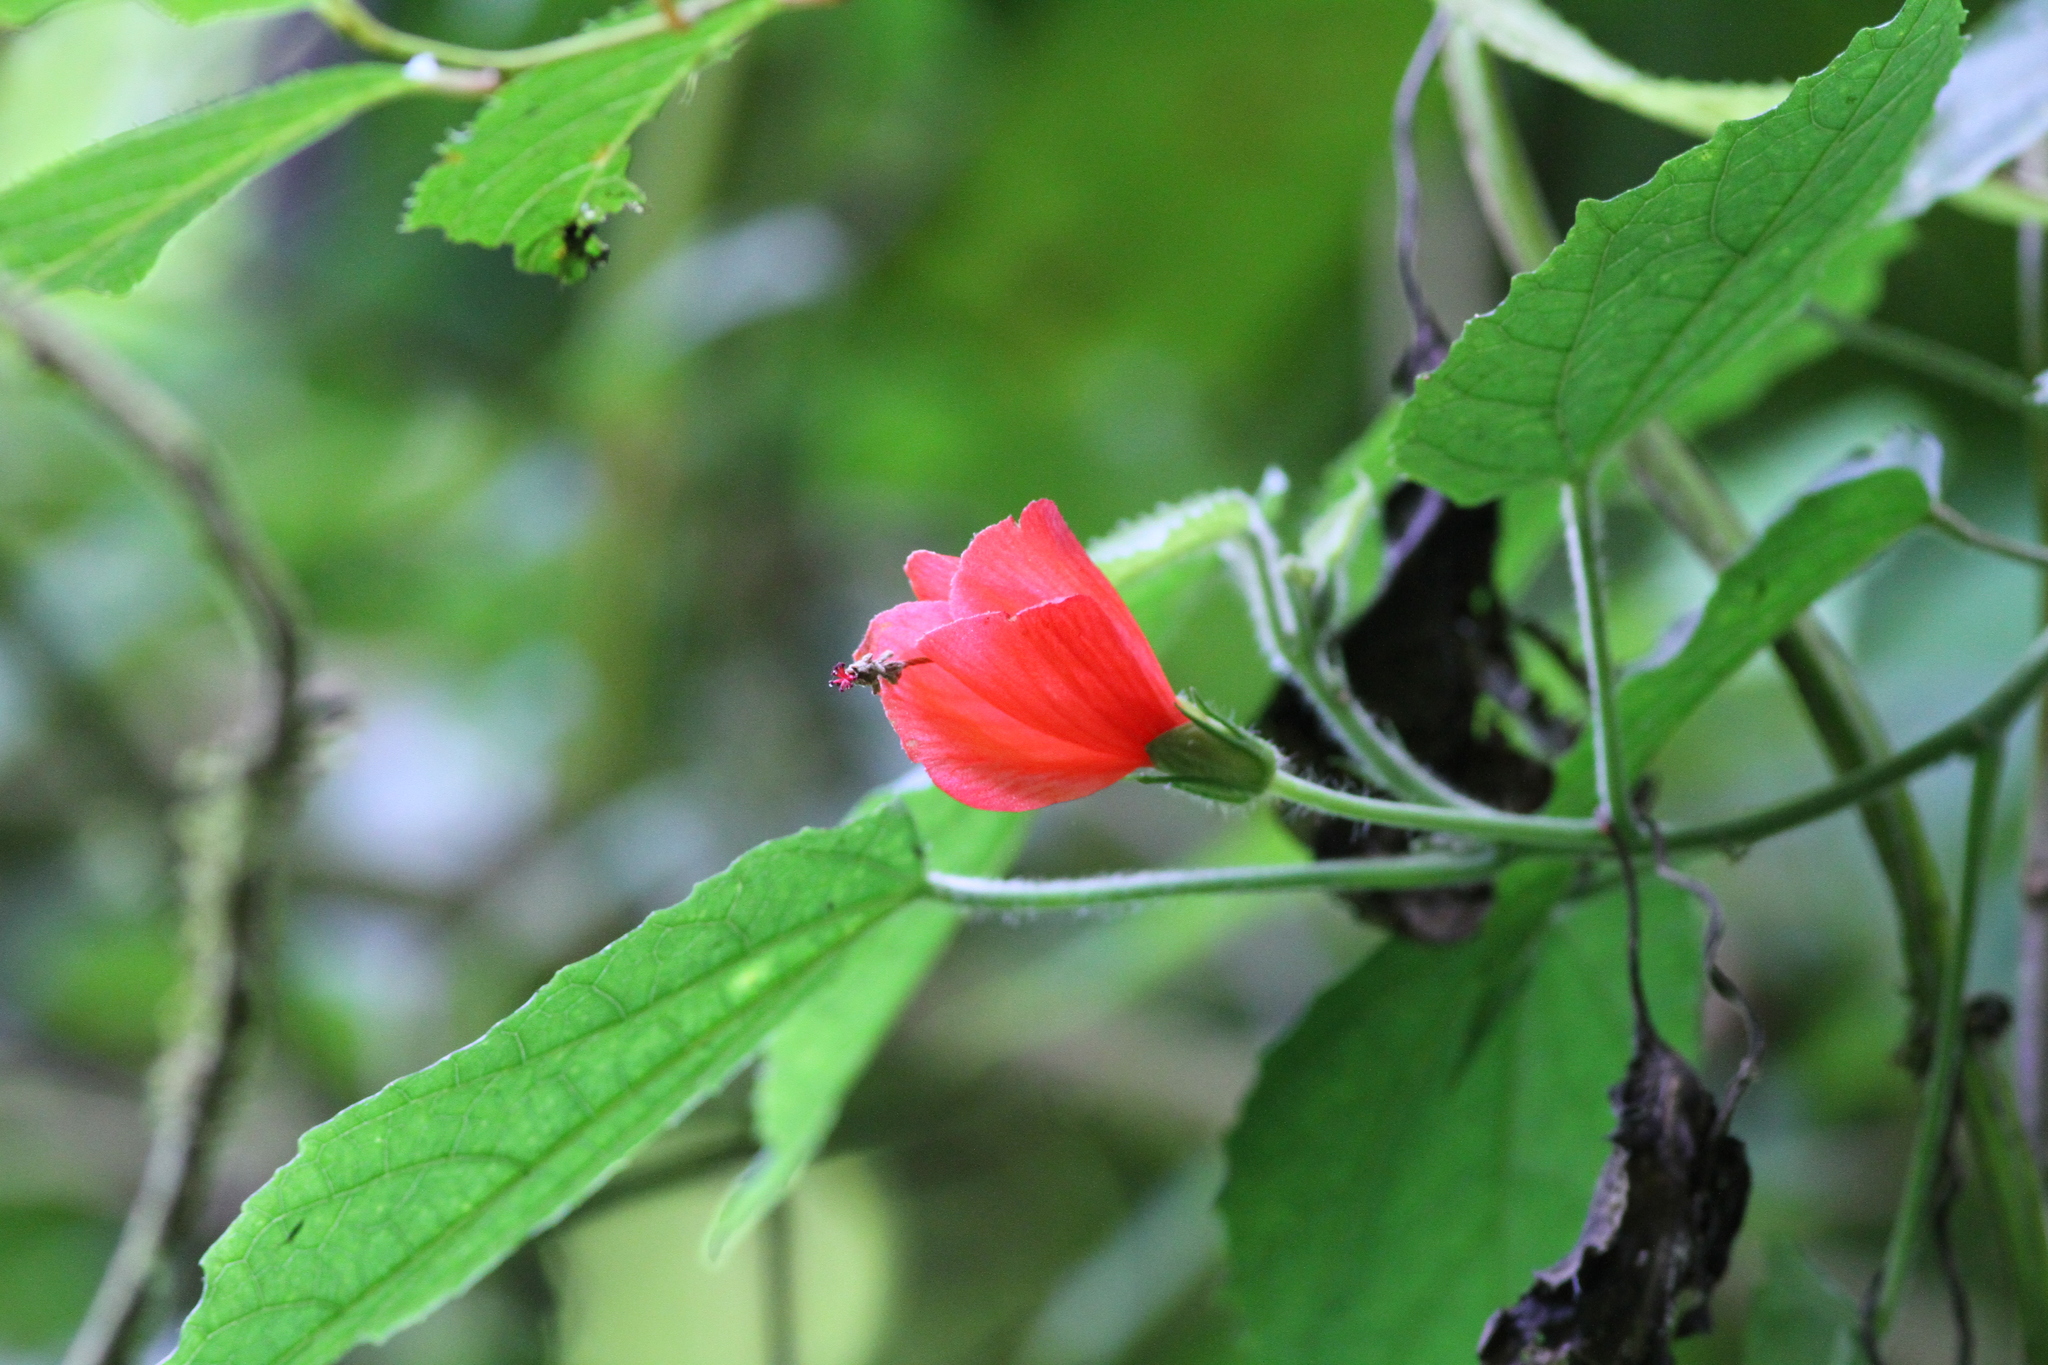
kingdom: Plantae
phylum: Tracheophyta
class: Magnoliopsida
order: Malvales
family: Malvaceae
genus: Malvaviscus
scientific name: Malvaviscus arboreus
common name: Wax mallow
